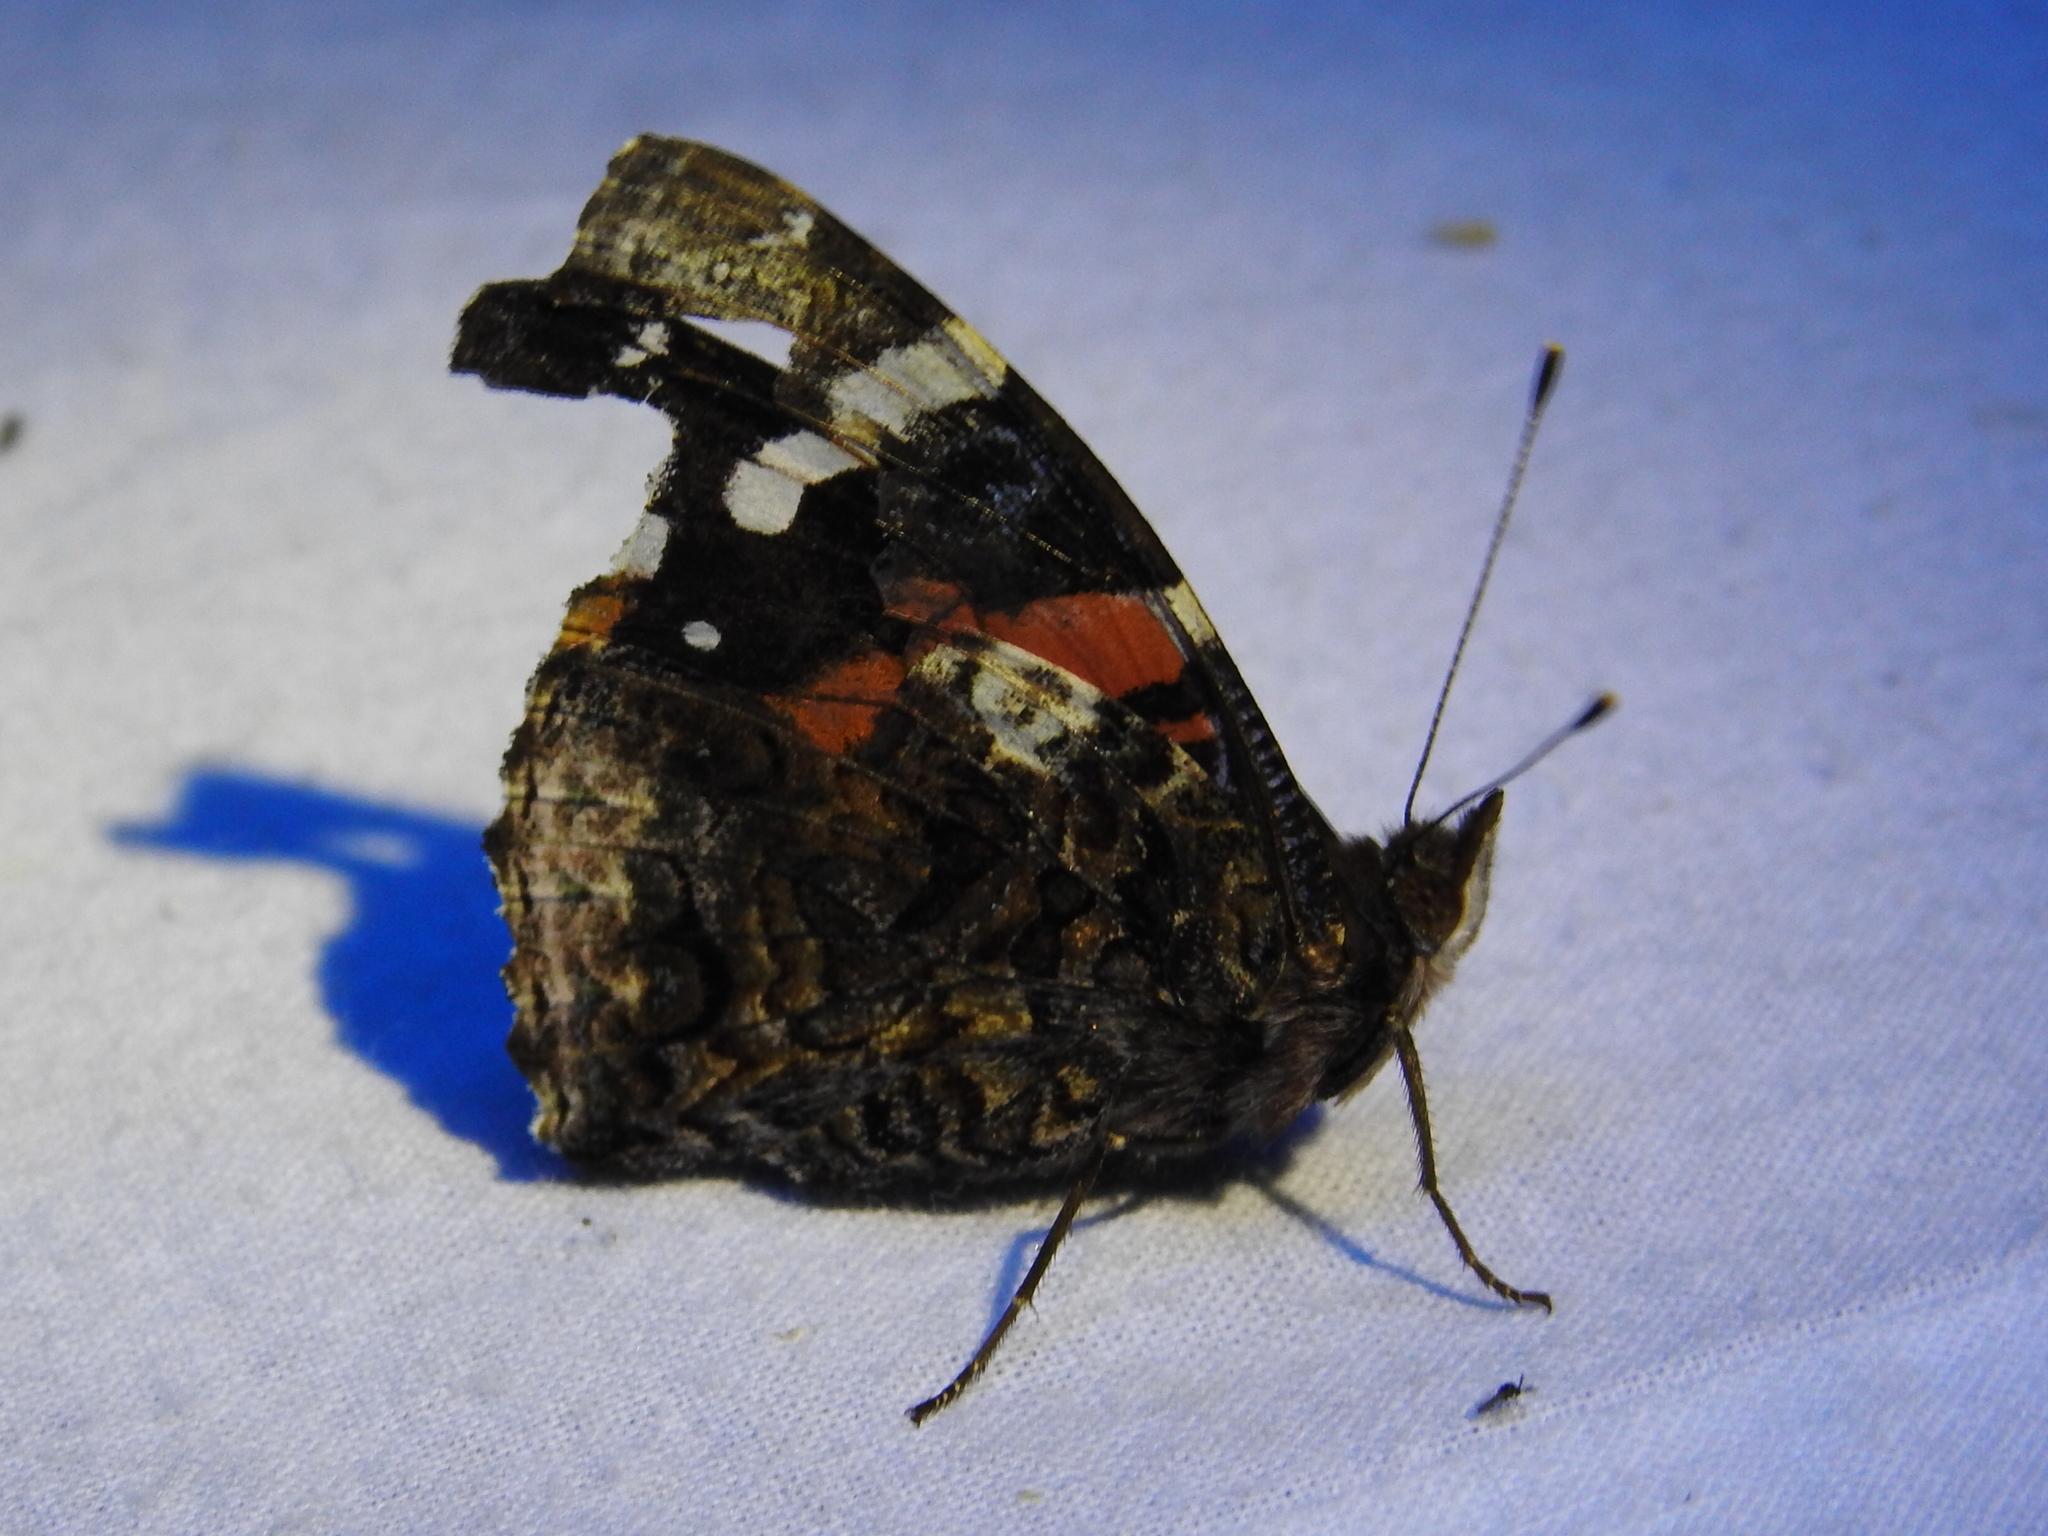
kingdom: Animalia
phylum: Arthropoda
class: Insecta
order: Lepidoptera
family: Nymphalidae
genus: Vanessa
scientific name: Vanessa atalanta
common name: Red admiral
